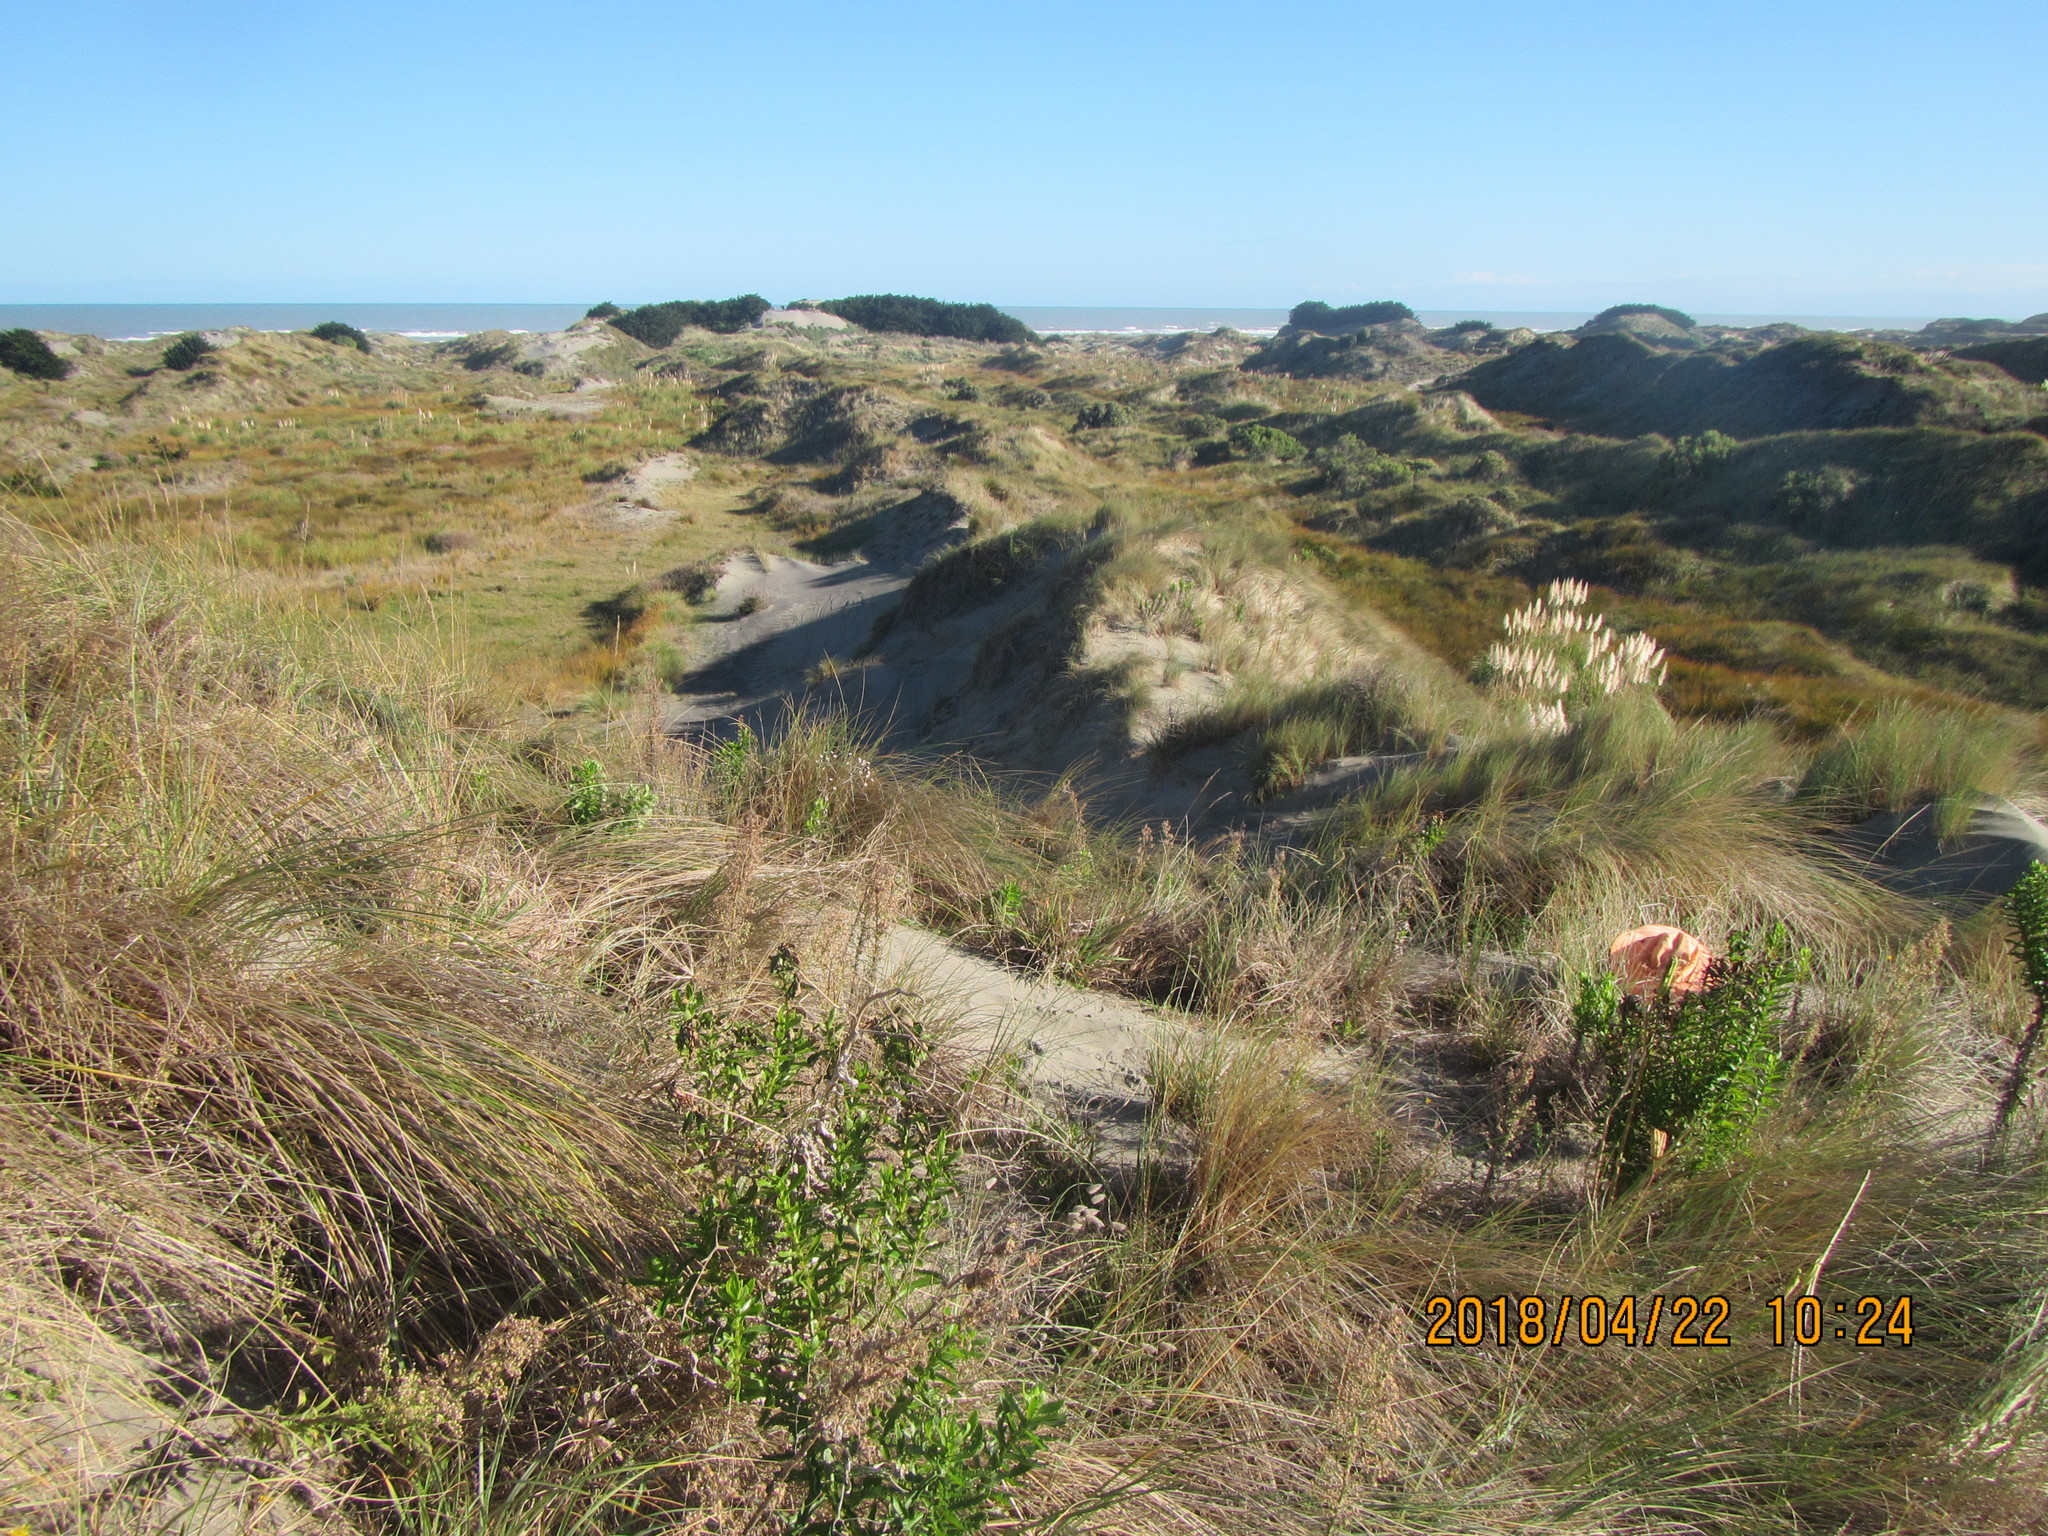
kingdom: Animalia
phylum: Arthropoda
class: Arachnida
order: Araneae
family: Theridiidae
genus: Latrodectus
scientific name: Latrodectus katipo
